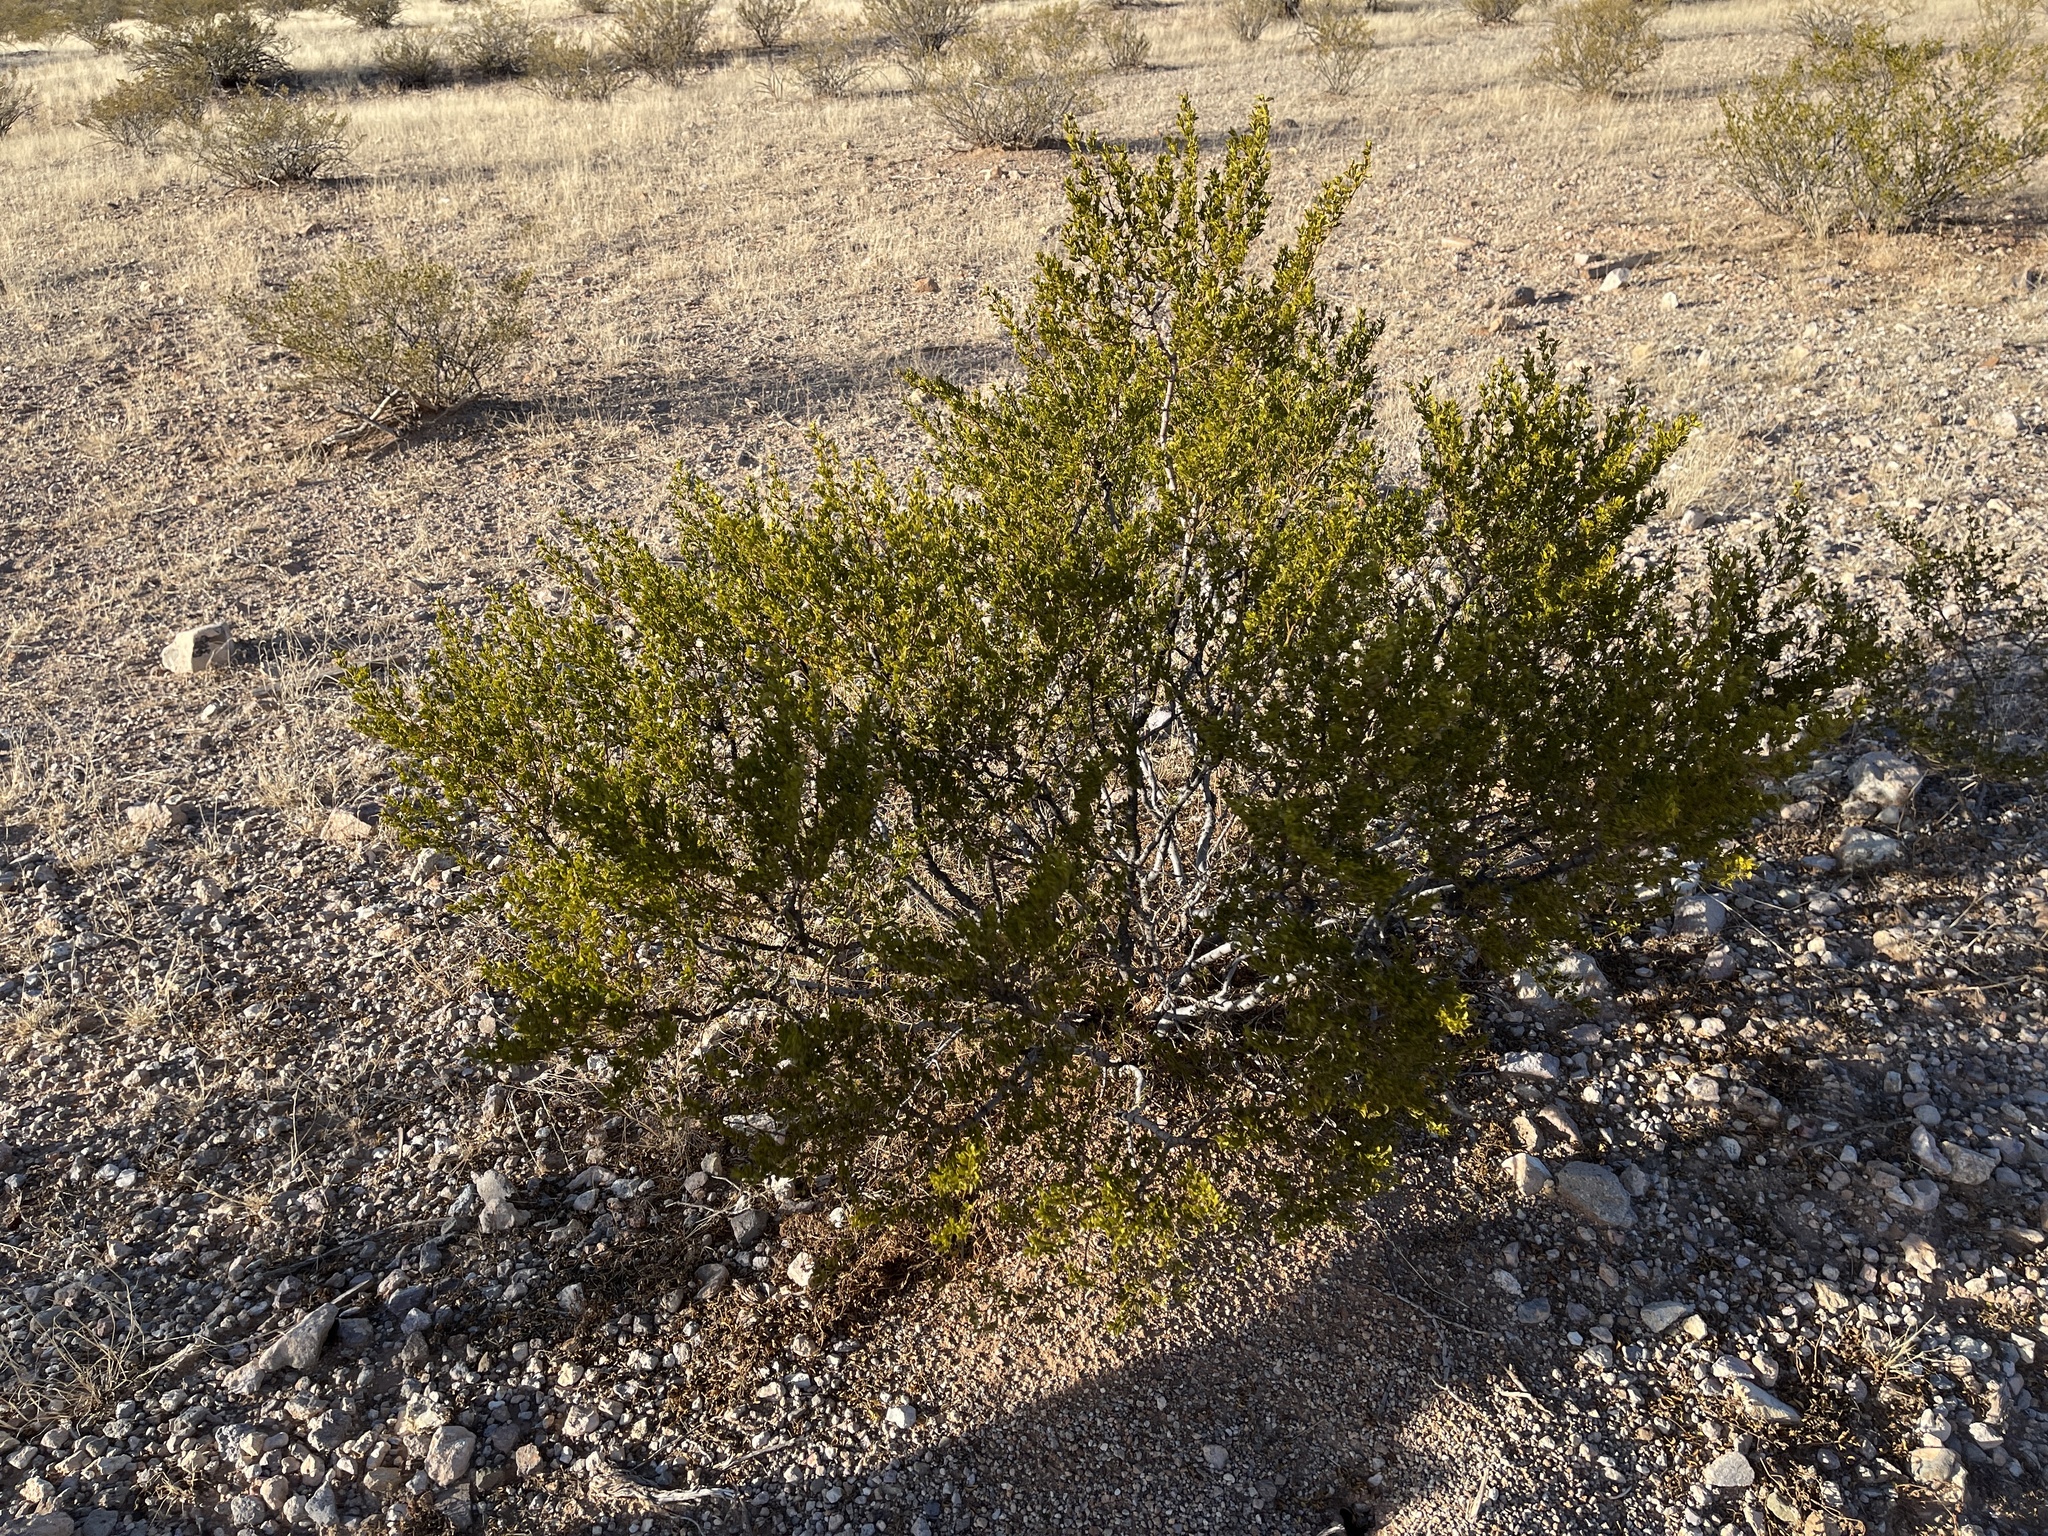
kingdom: Plantae
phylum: Tracheophyta
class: Magnoliopsida
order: Zygophyllales
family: Zygophyllaceae
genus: Larrea
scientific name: Larrea tridentata
